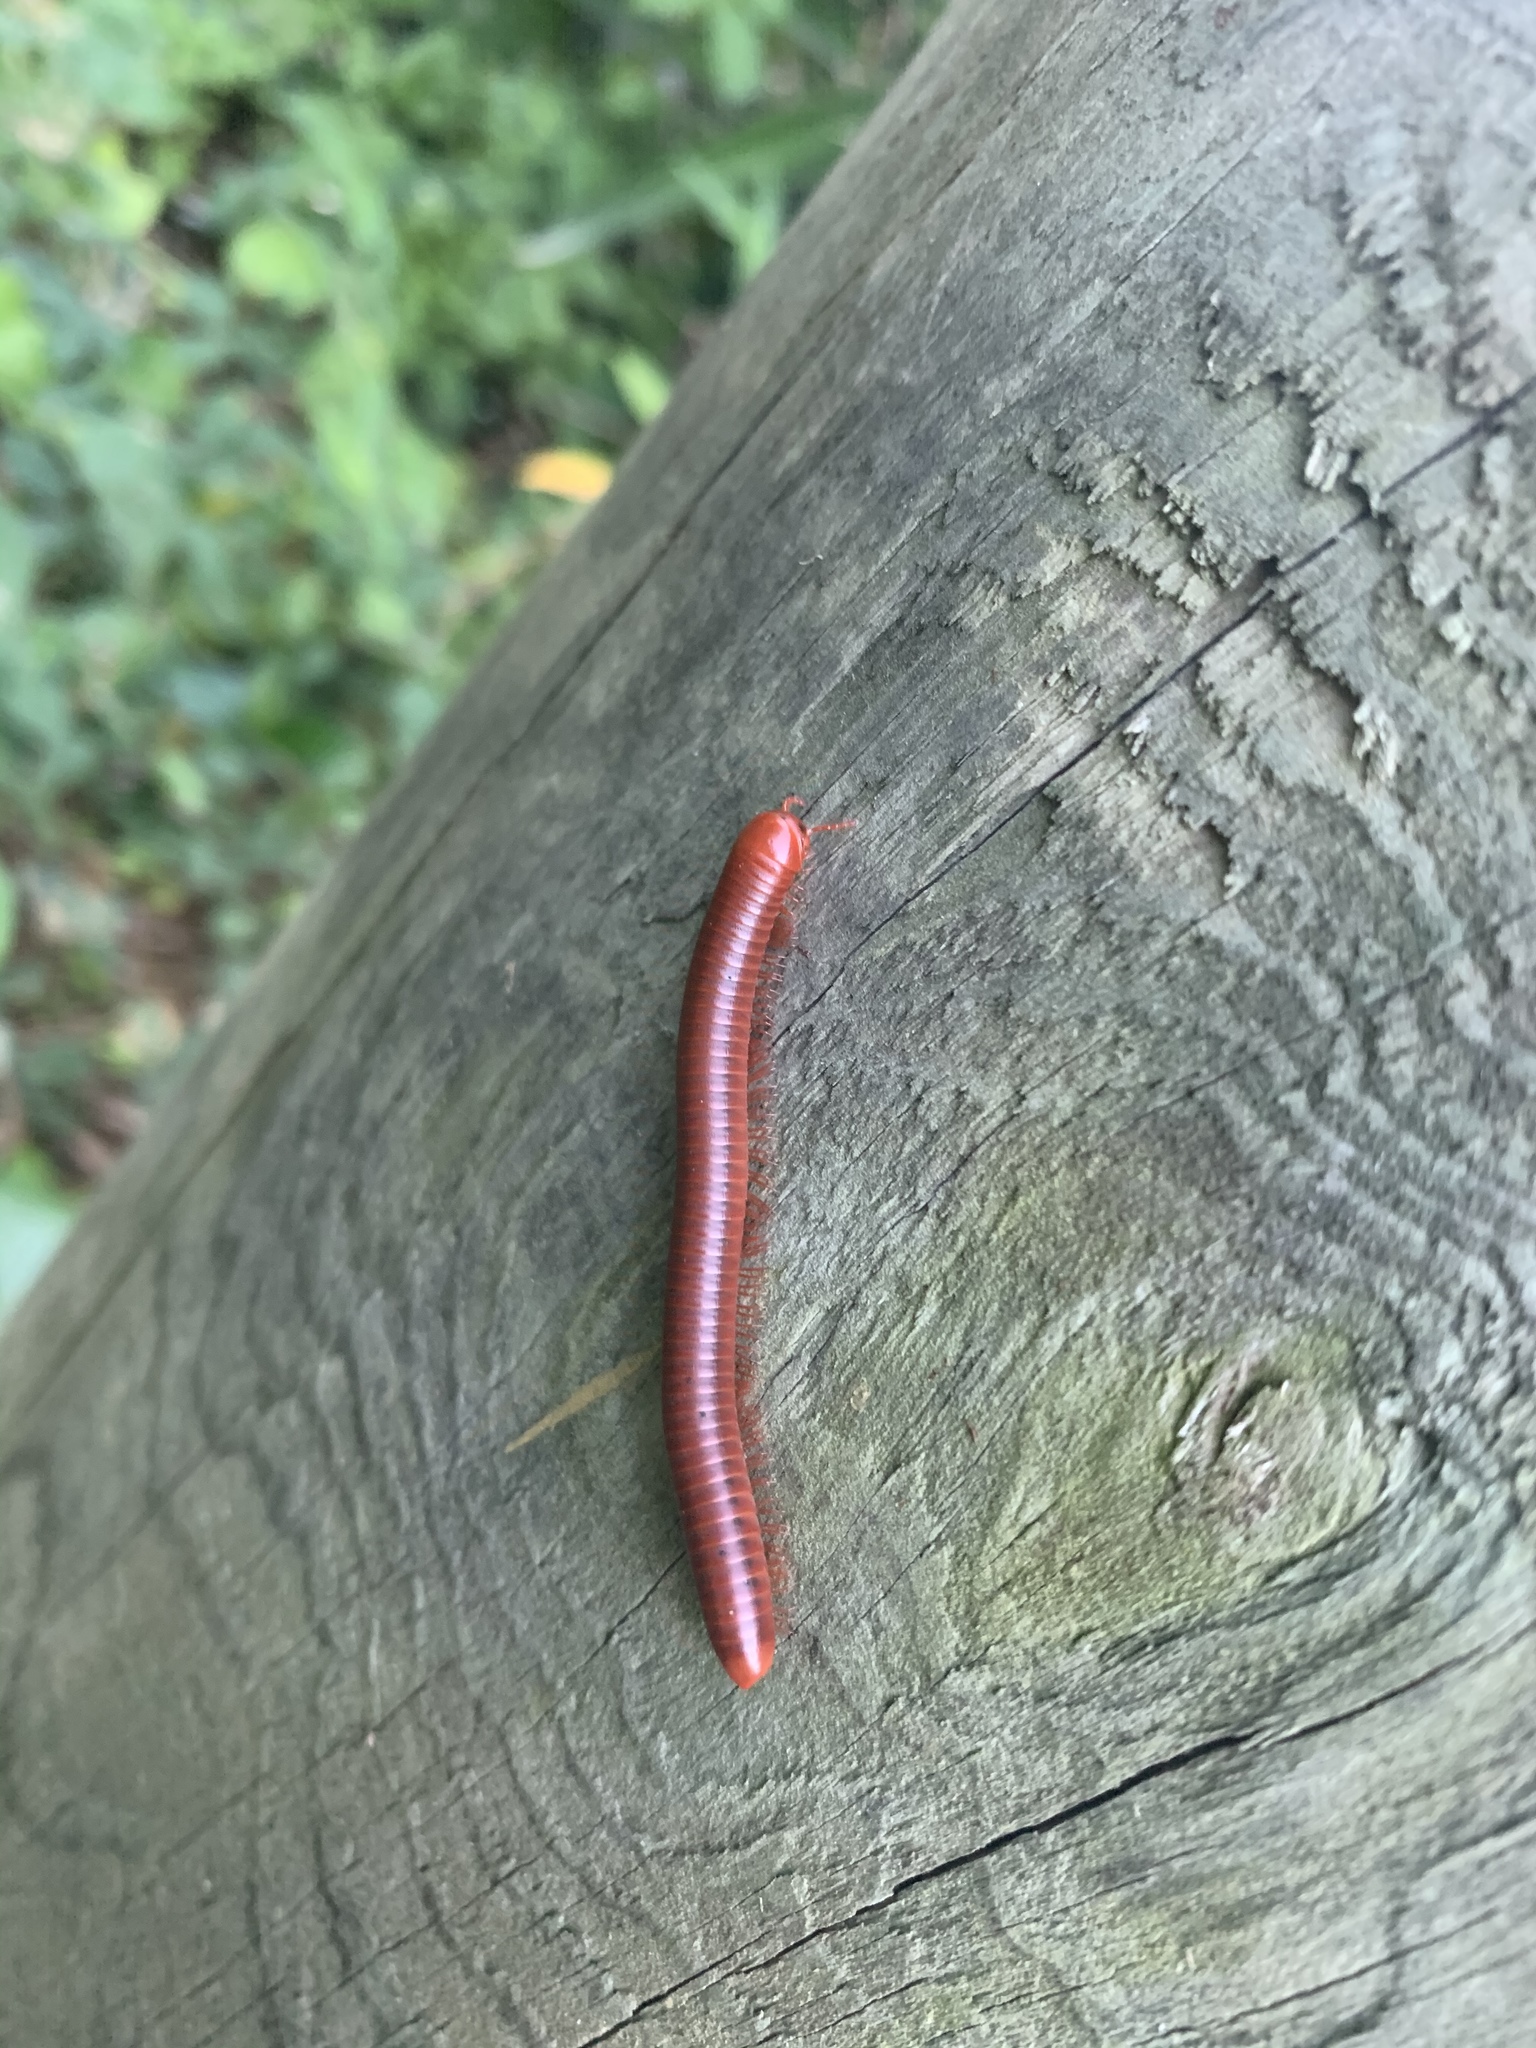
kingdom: Animalia
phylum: Arthropoda
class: Diplopoda
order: Spirobolida
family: Pachybolidae
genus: Trigoniulus
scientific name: Trigoniulus corallinus
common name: Millipede
